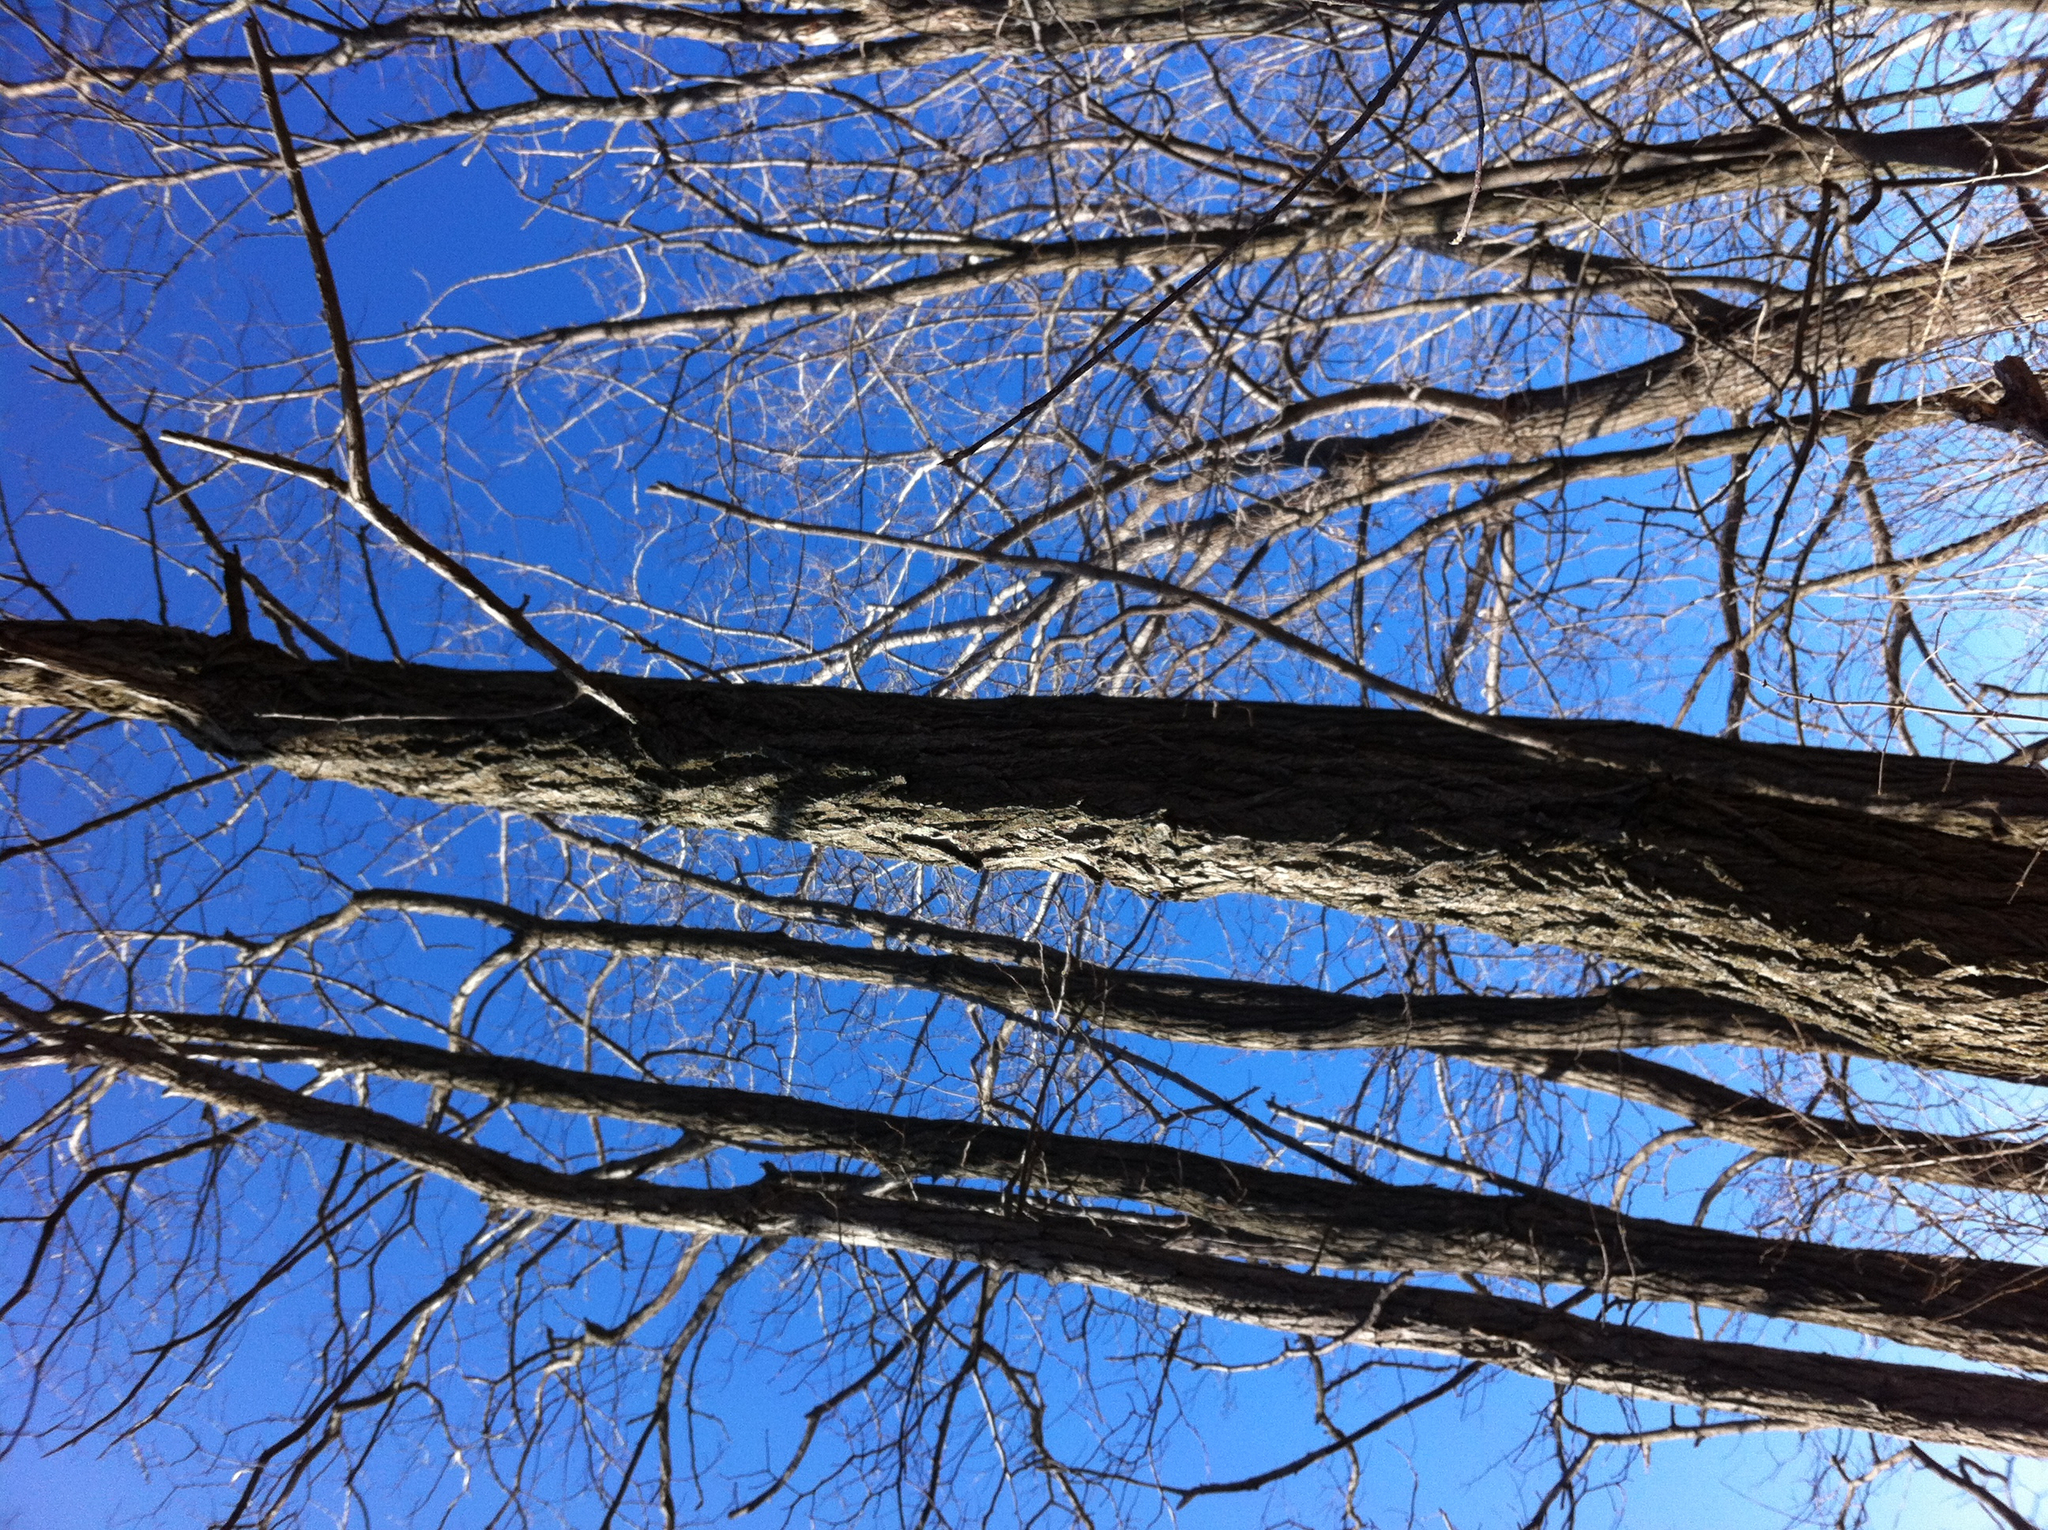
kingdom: Plantae
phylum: Tracheophyta
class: Magnoliopsida
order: Fabales
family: Fabaceae
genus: Robinia
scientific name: Robinia pseudoacacia
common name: Black locust
